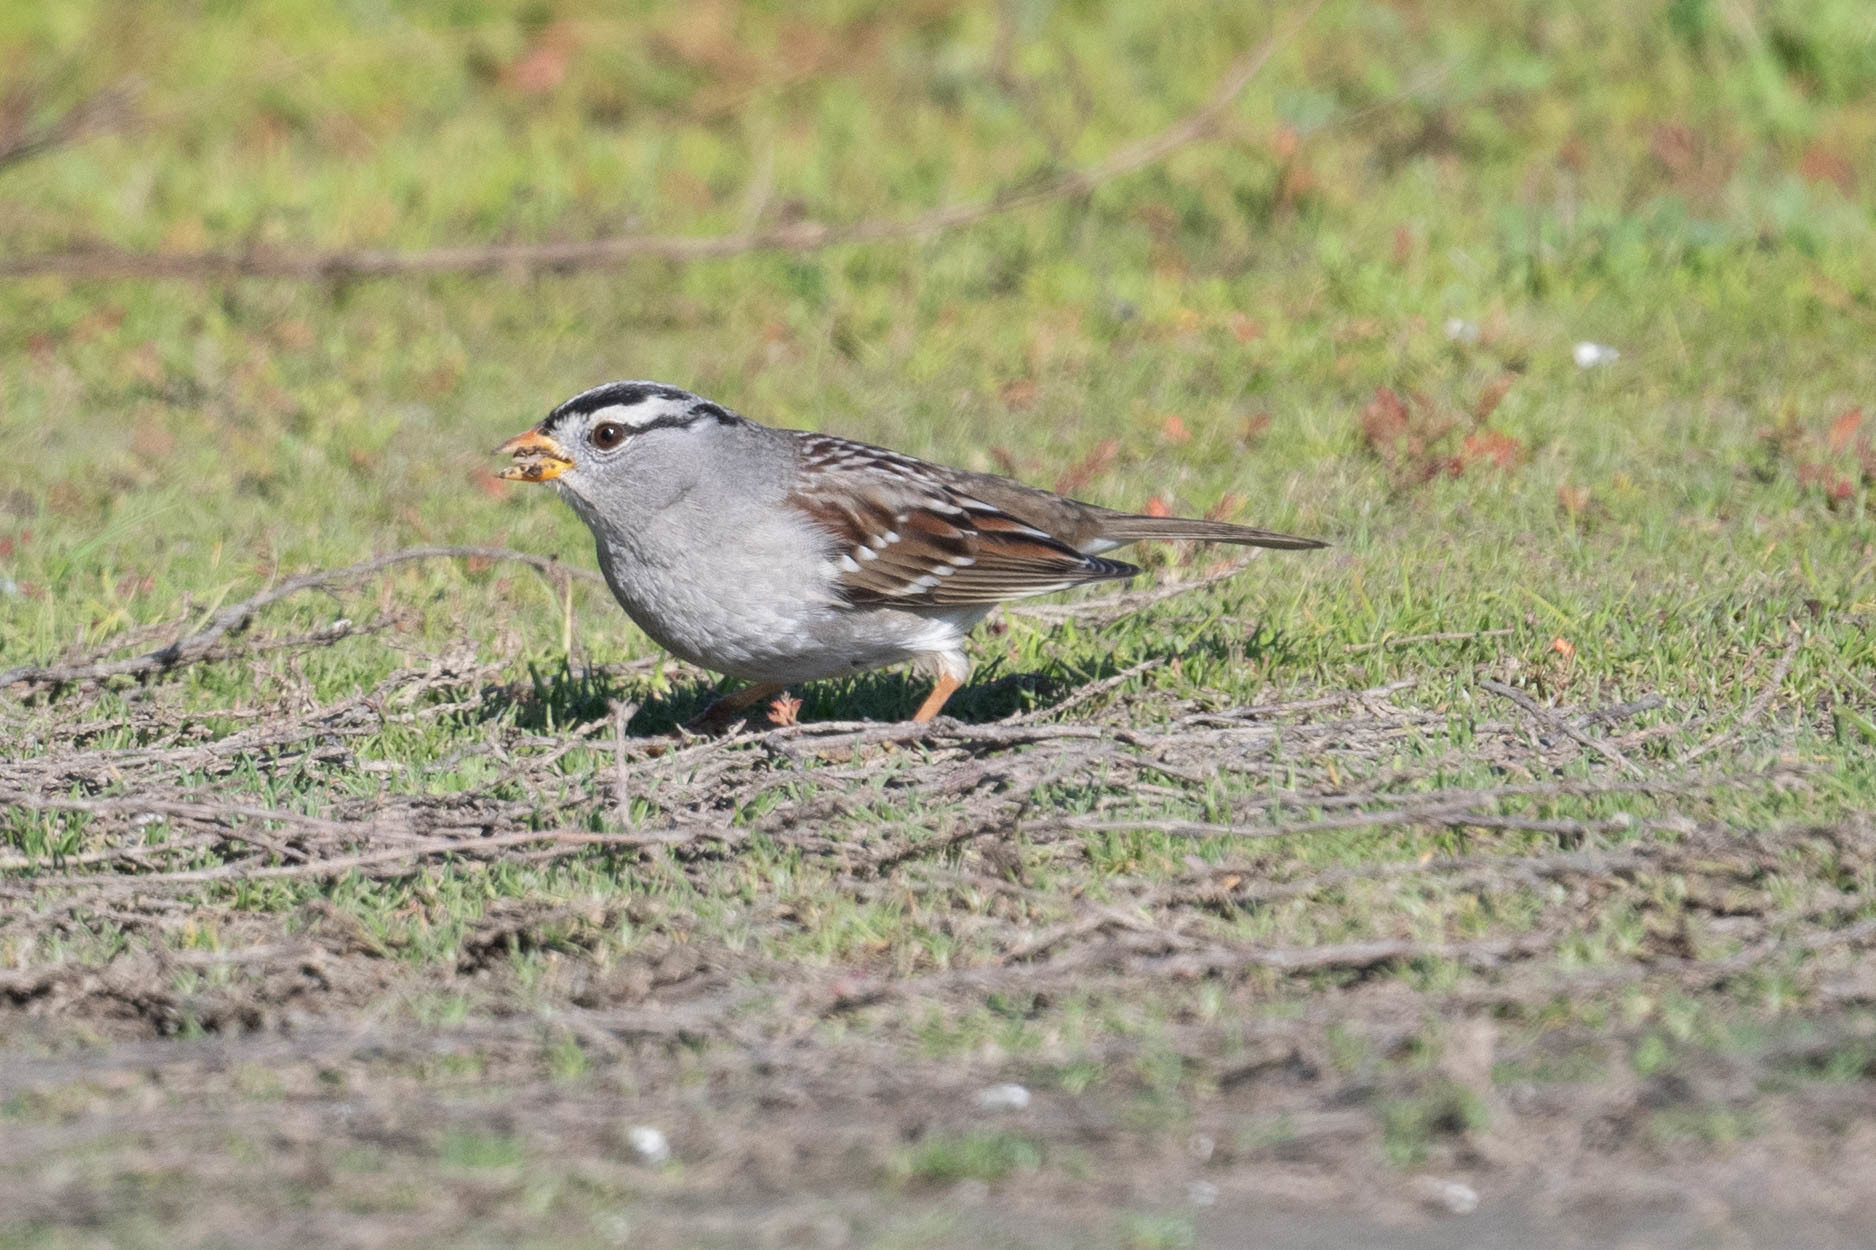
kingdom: Animalia
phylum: Chordata
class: Aves
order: Passeriformes
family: Passerellidae
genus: Zonotrichia
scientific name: Zonotrichia leucophrys
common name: White-crowned sparrow
